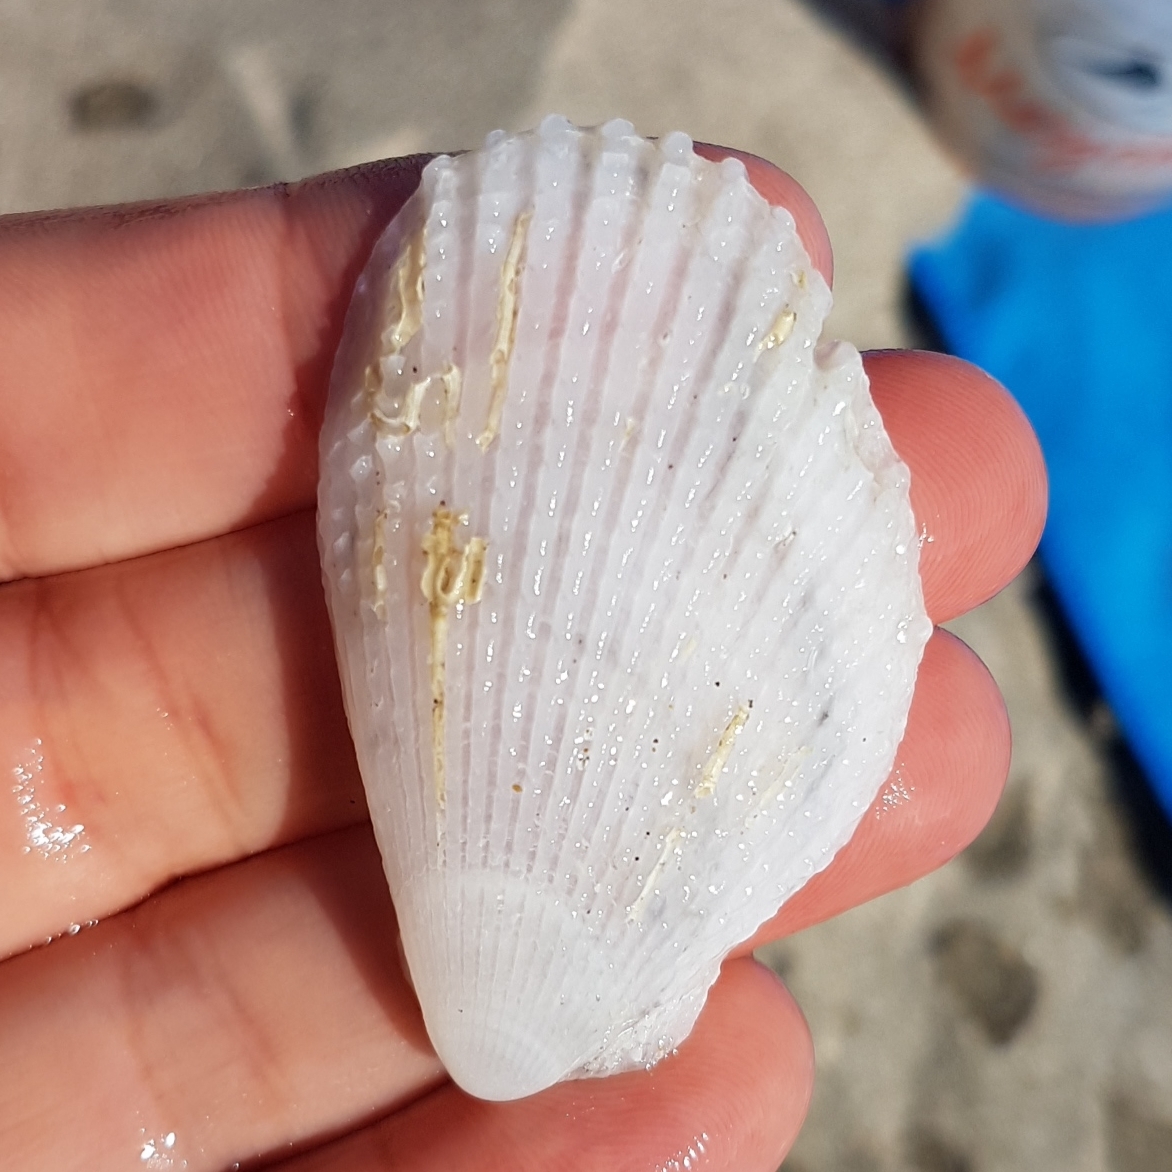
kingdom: Animalia
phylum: Mollusca
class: Bivalvia
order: Limida
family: Limidae
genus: Lima
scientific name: Lima lima
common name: Frilled file shell
